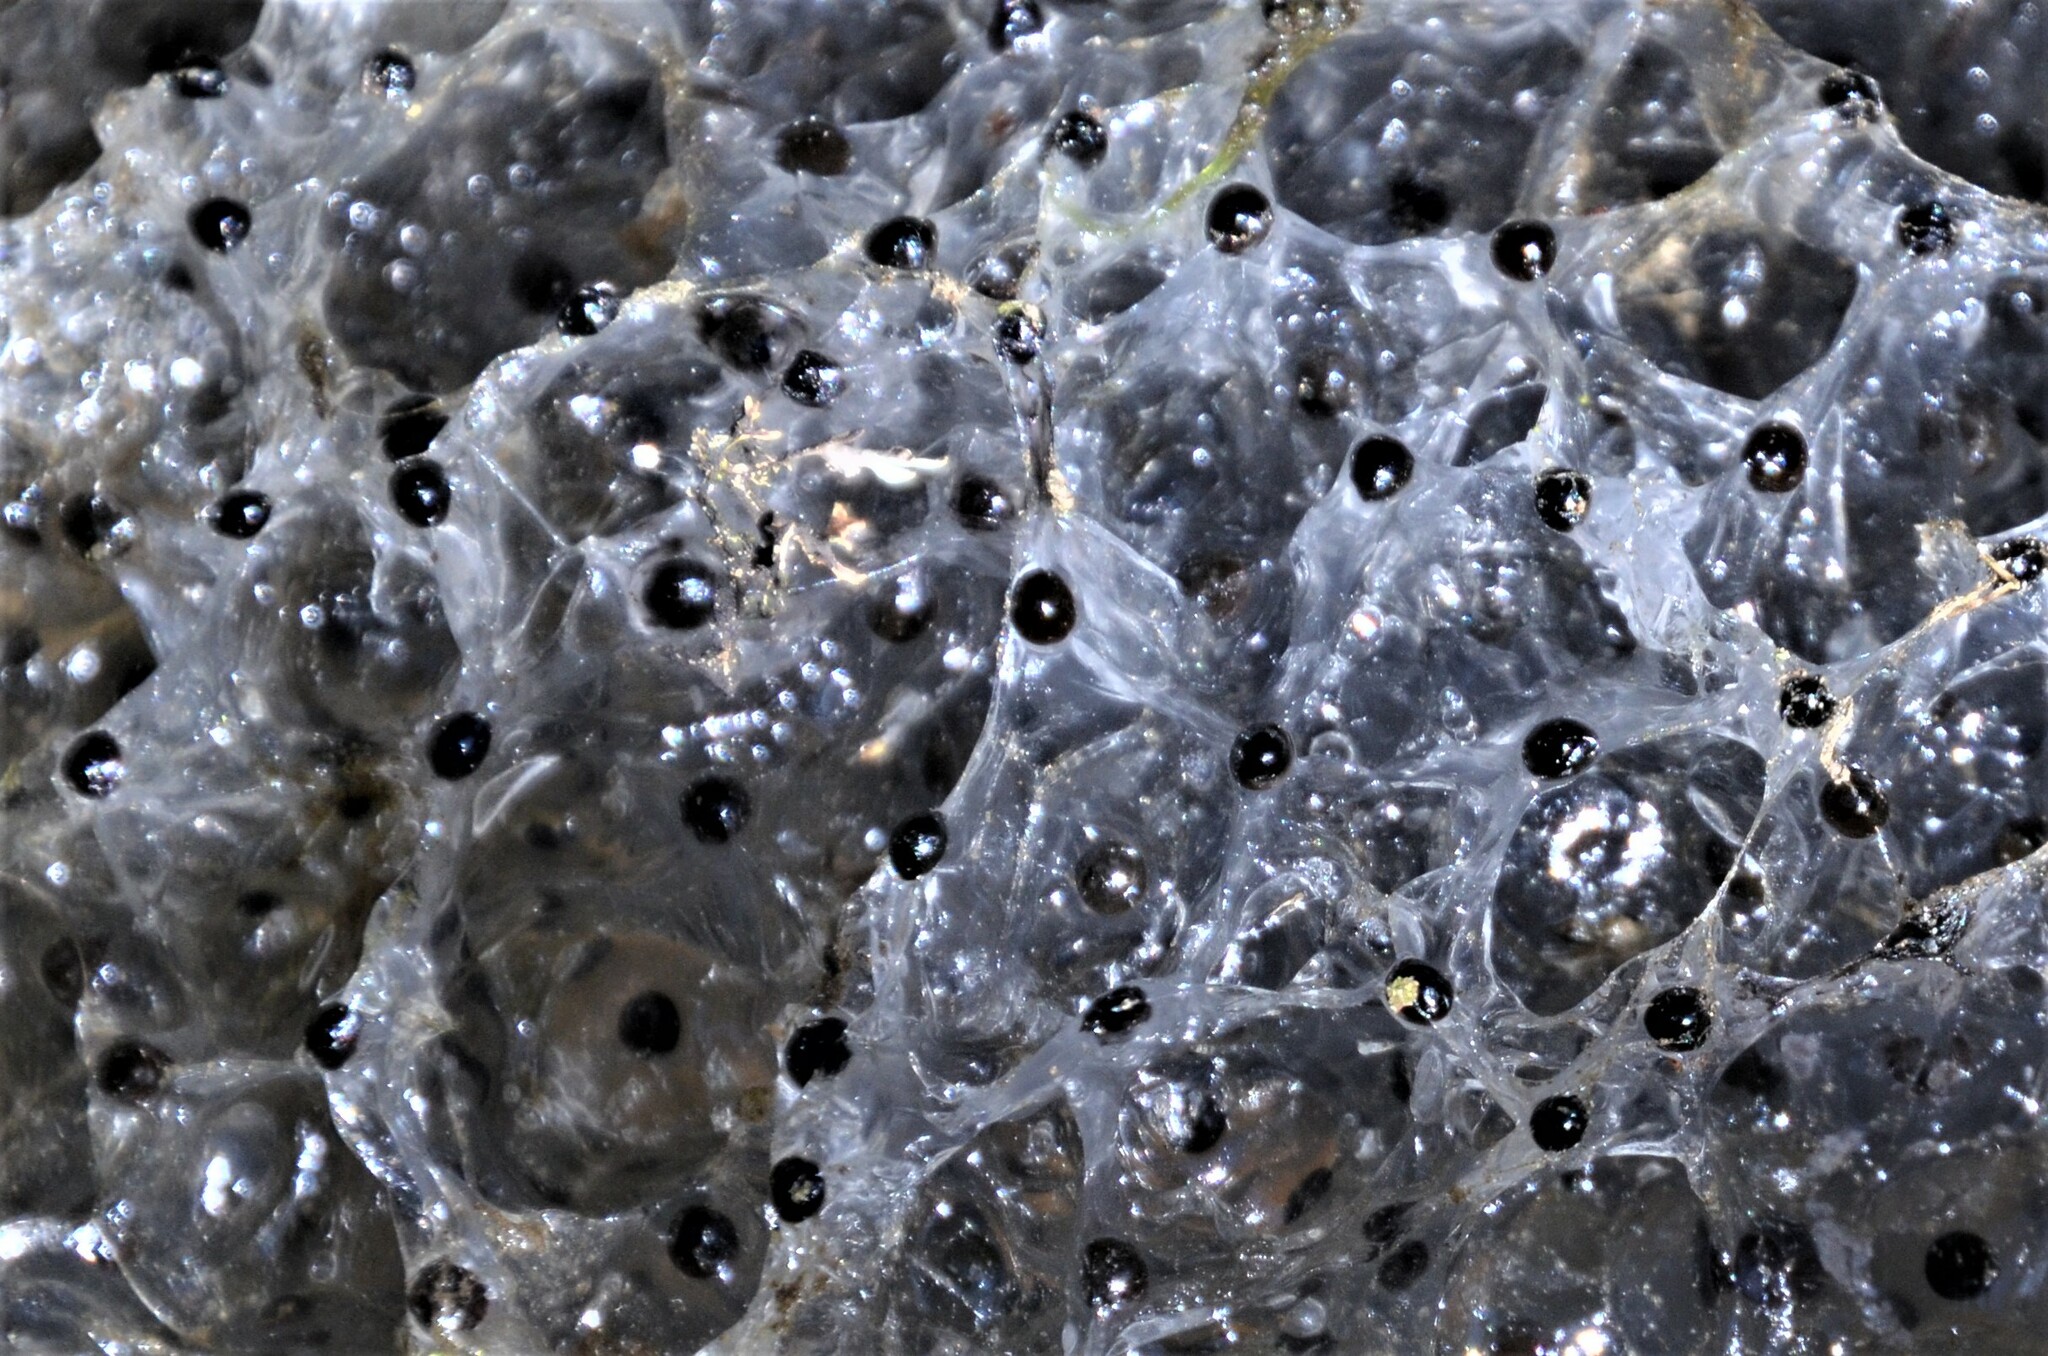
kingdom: Animalia
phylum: Chordata
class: Amphibia
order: Anura
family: Ranidae
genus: Rana
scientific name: Rana temporaria
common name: Common frog
